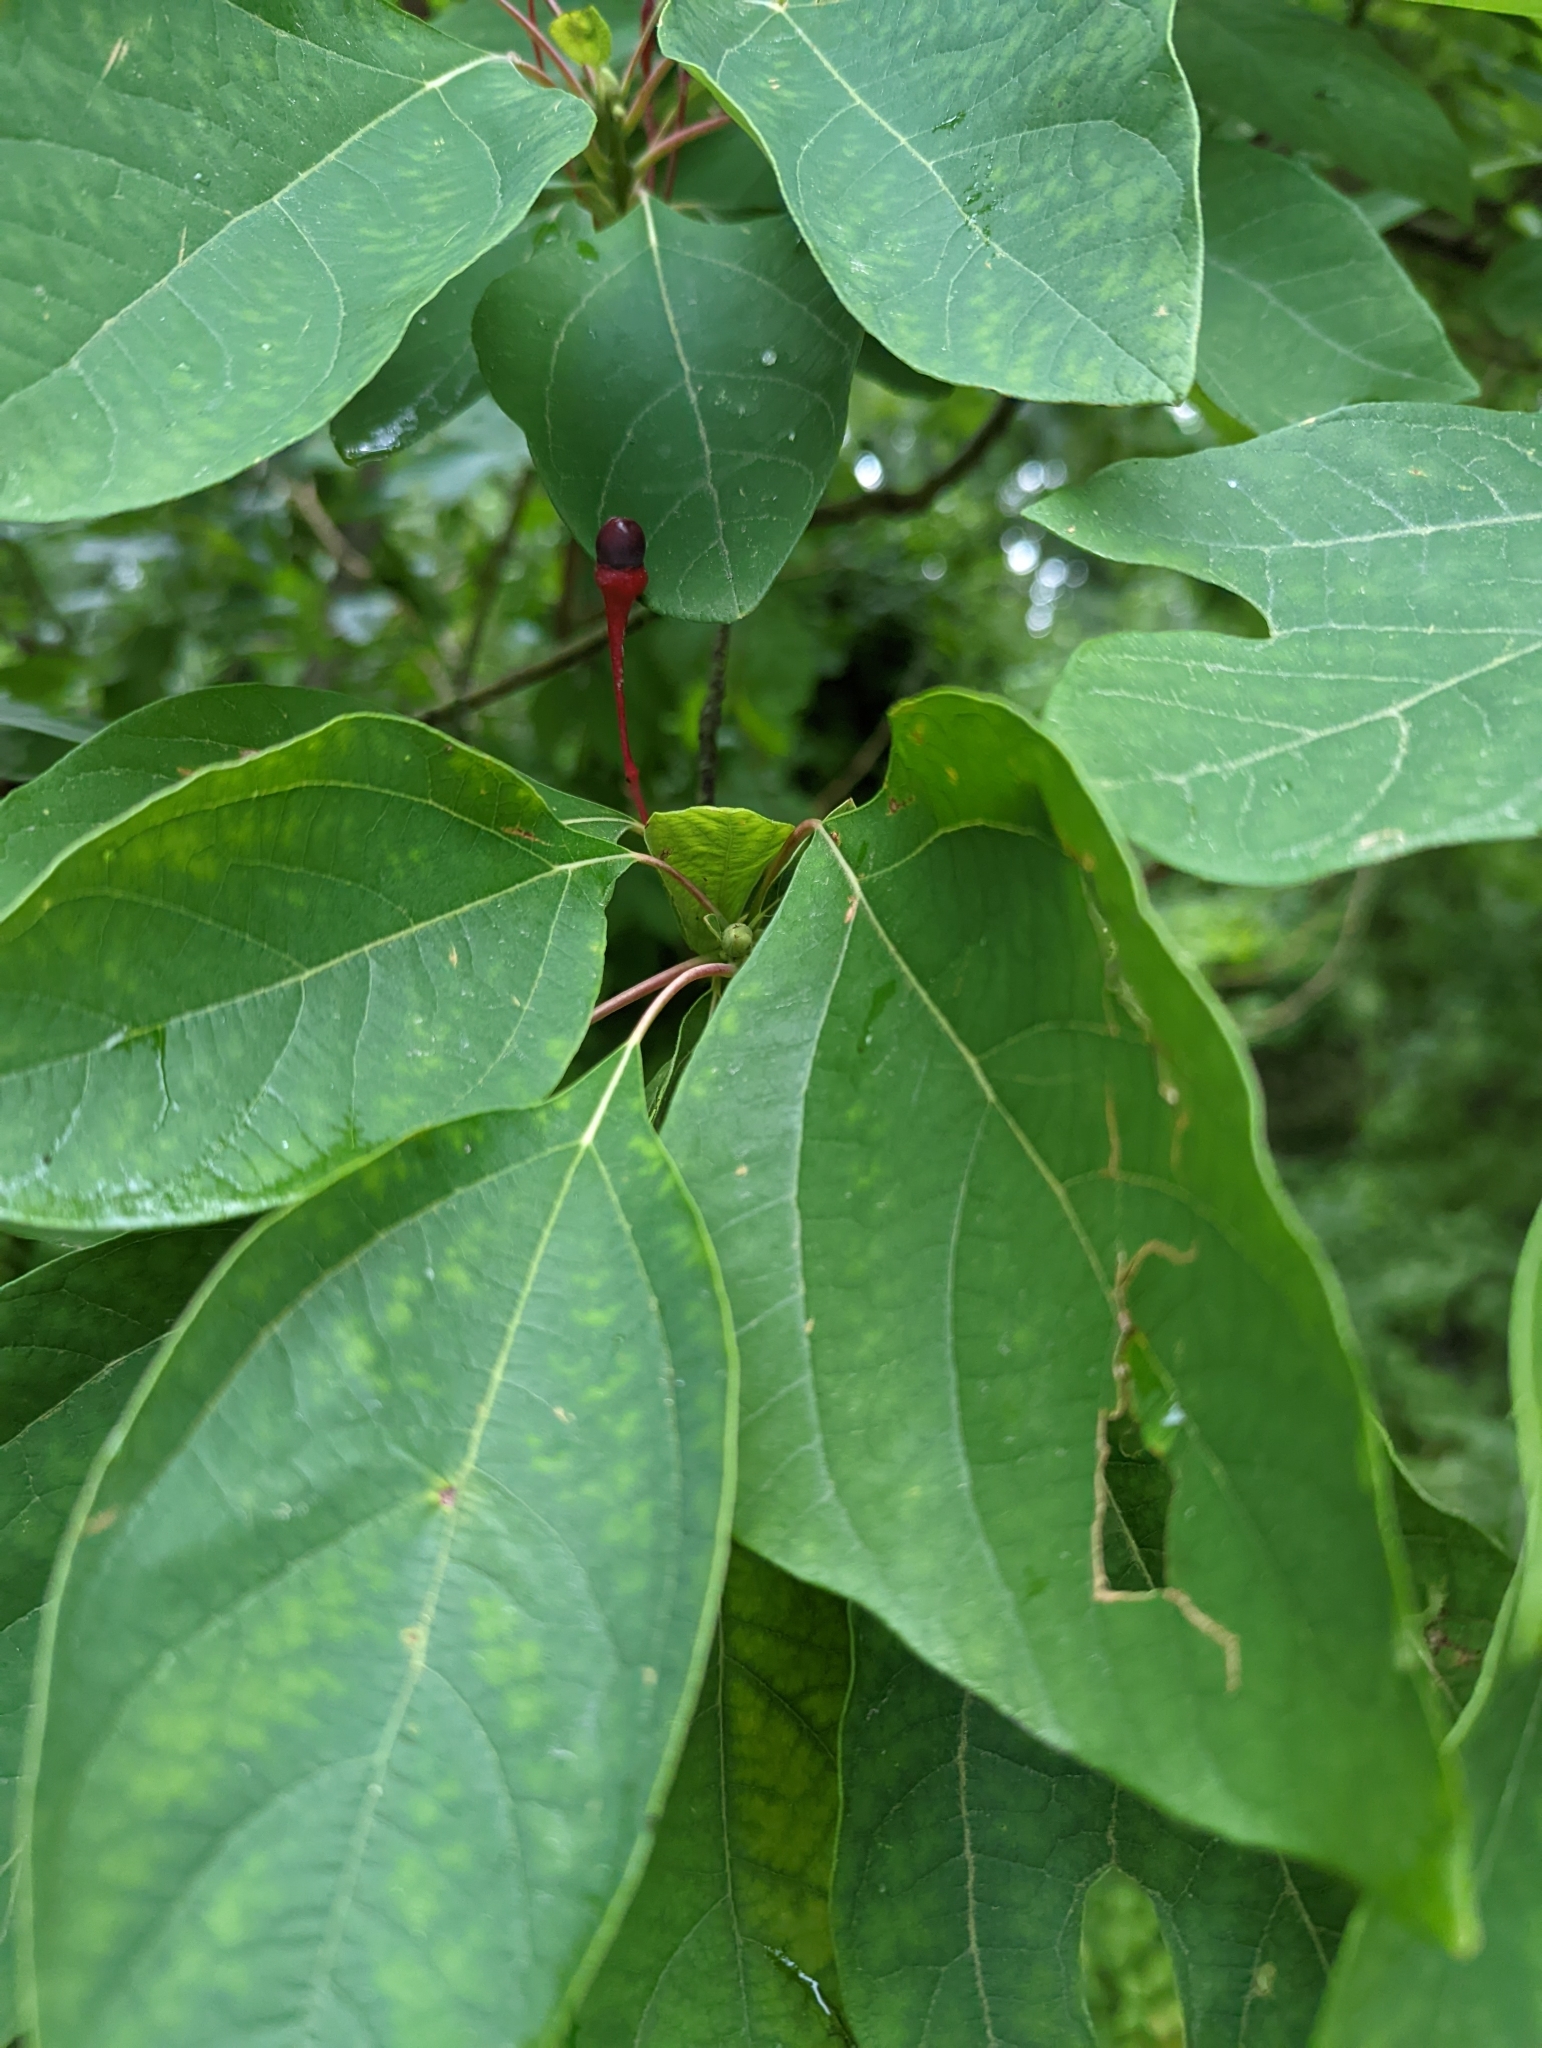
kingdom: Plantae
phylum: Tracheophyta
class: Magnoliopsida
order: Laurales
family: Lauraceae
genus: Sassafras
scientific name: Sassafras albidum
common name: Sassafras
